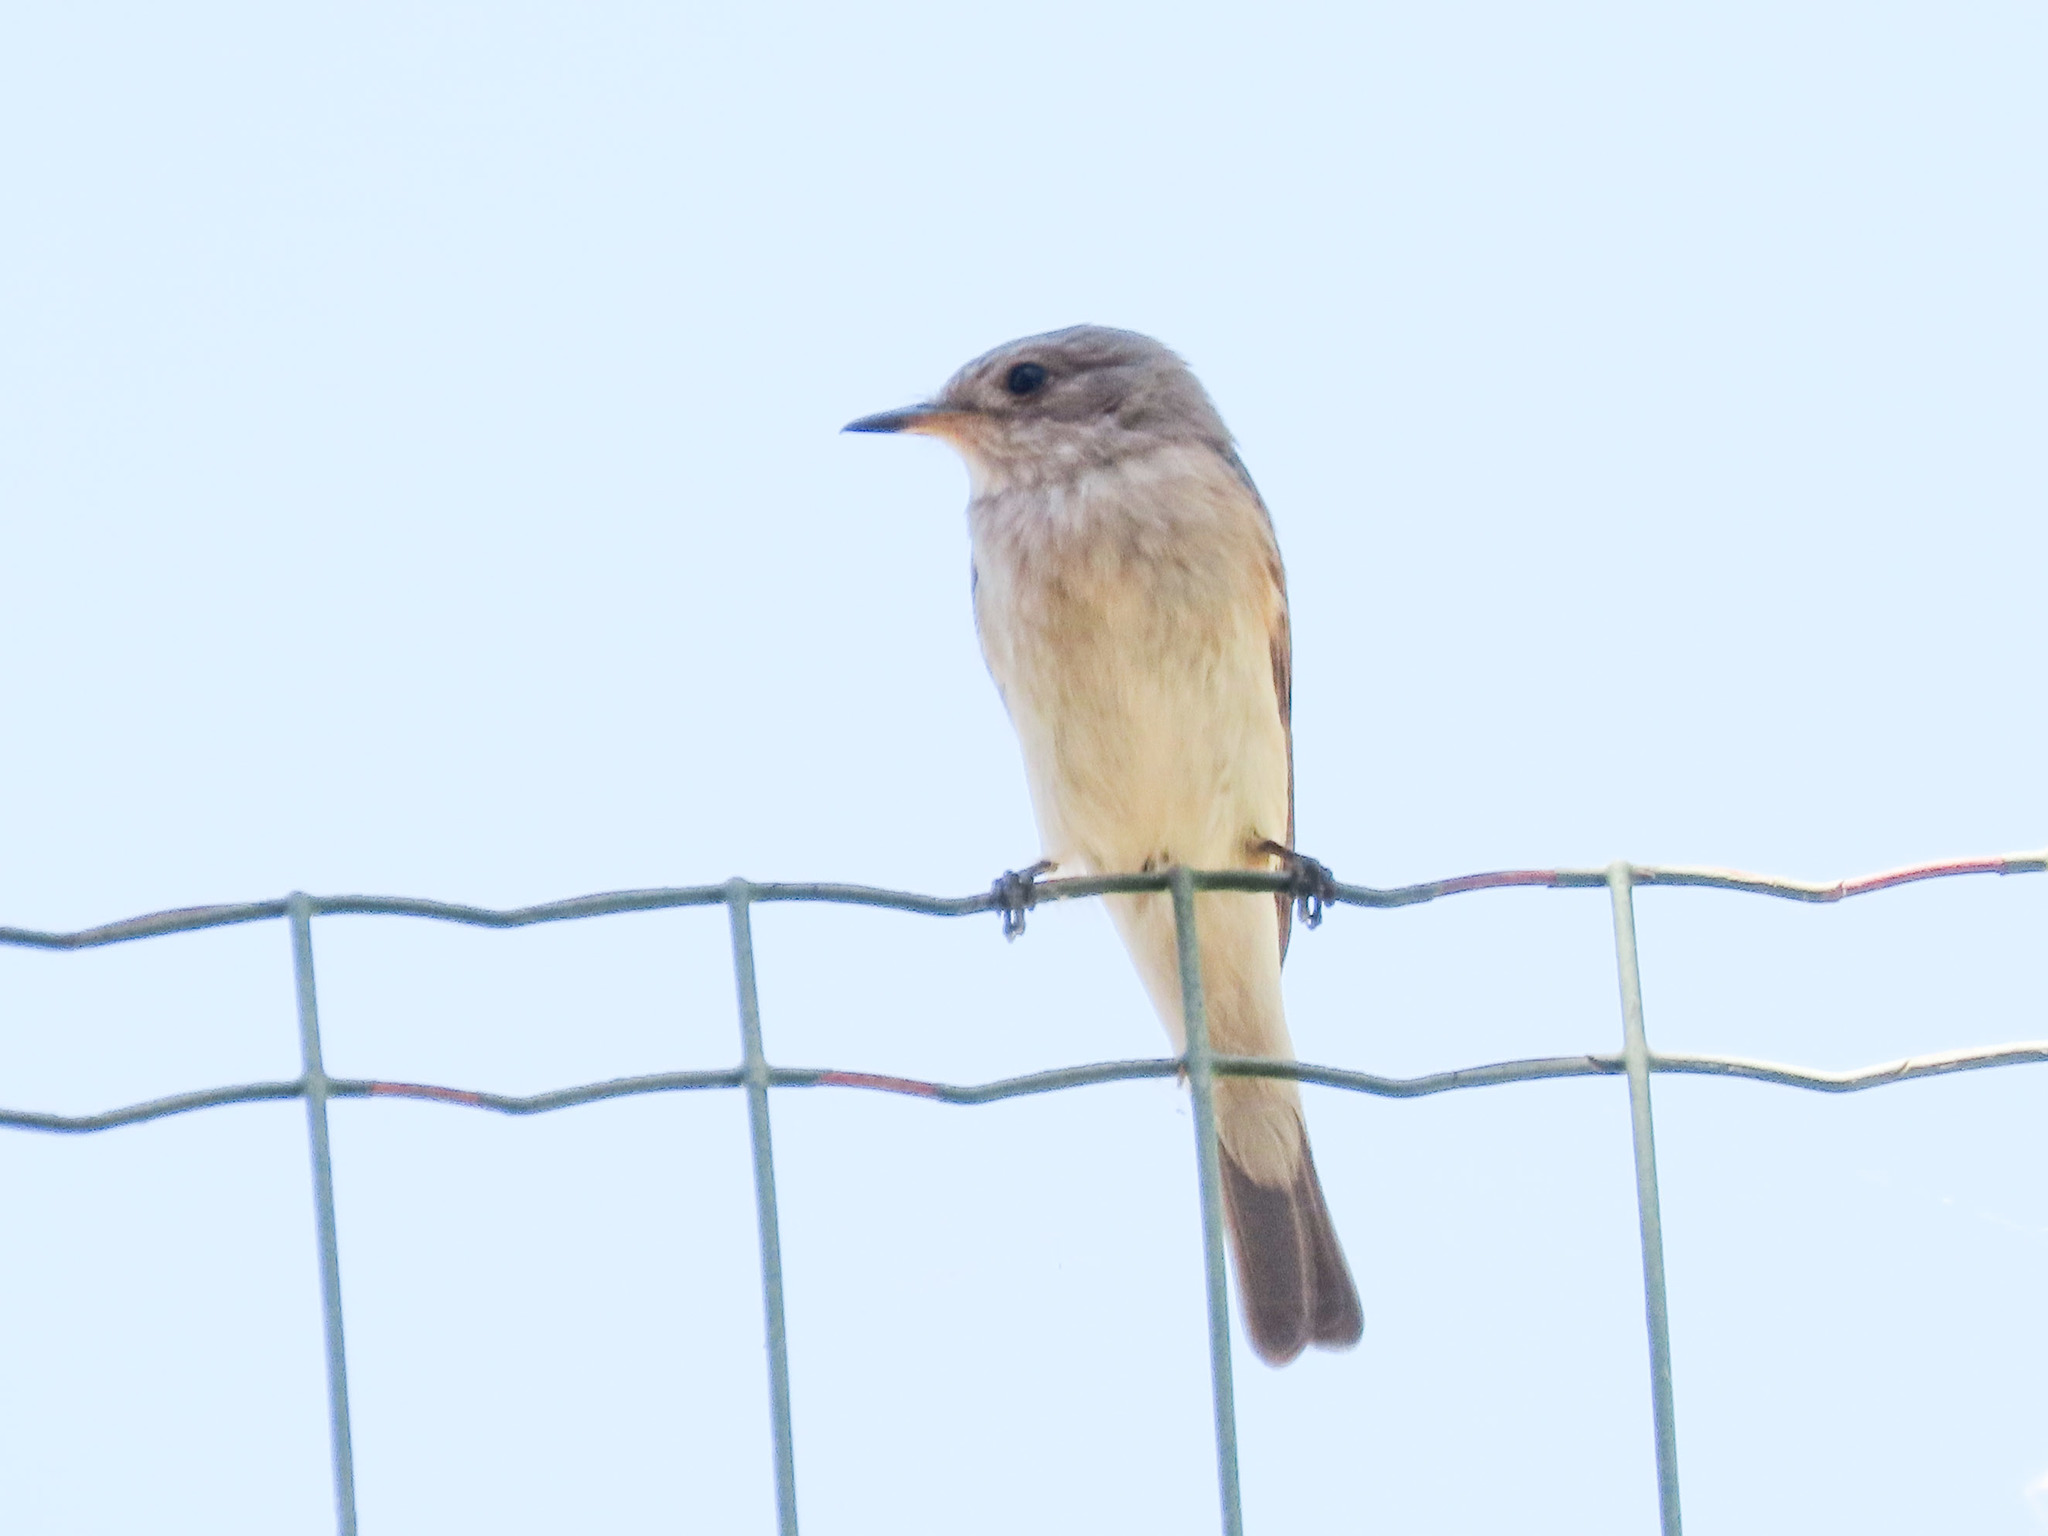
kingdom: Animalia
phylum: Chordata
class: Aves
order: Passeriformes
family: Muscicapidae
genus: Muscicapa
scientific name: Muscicapa striata
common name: Spotted flycatcher
